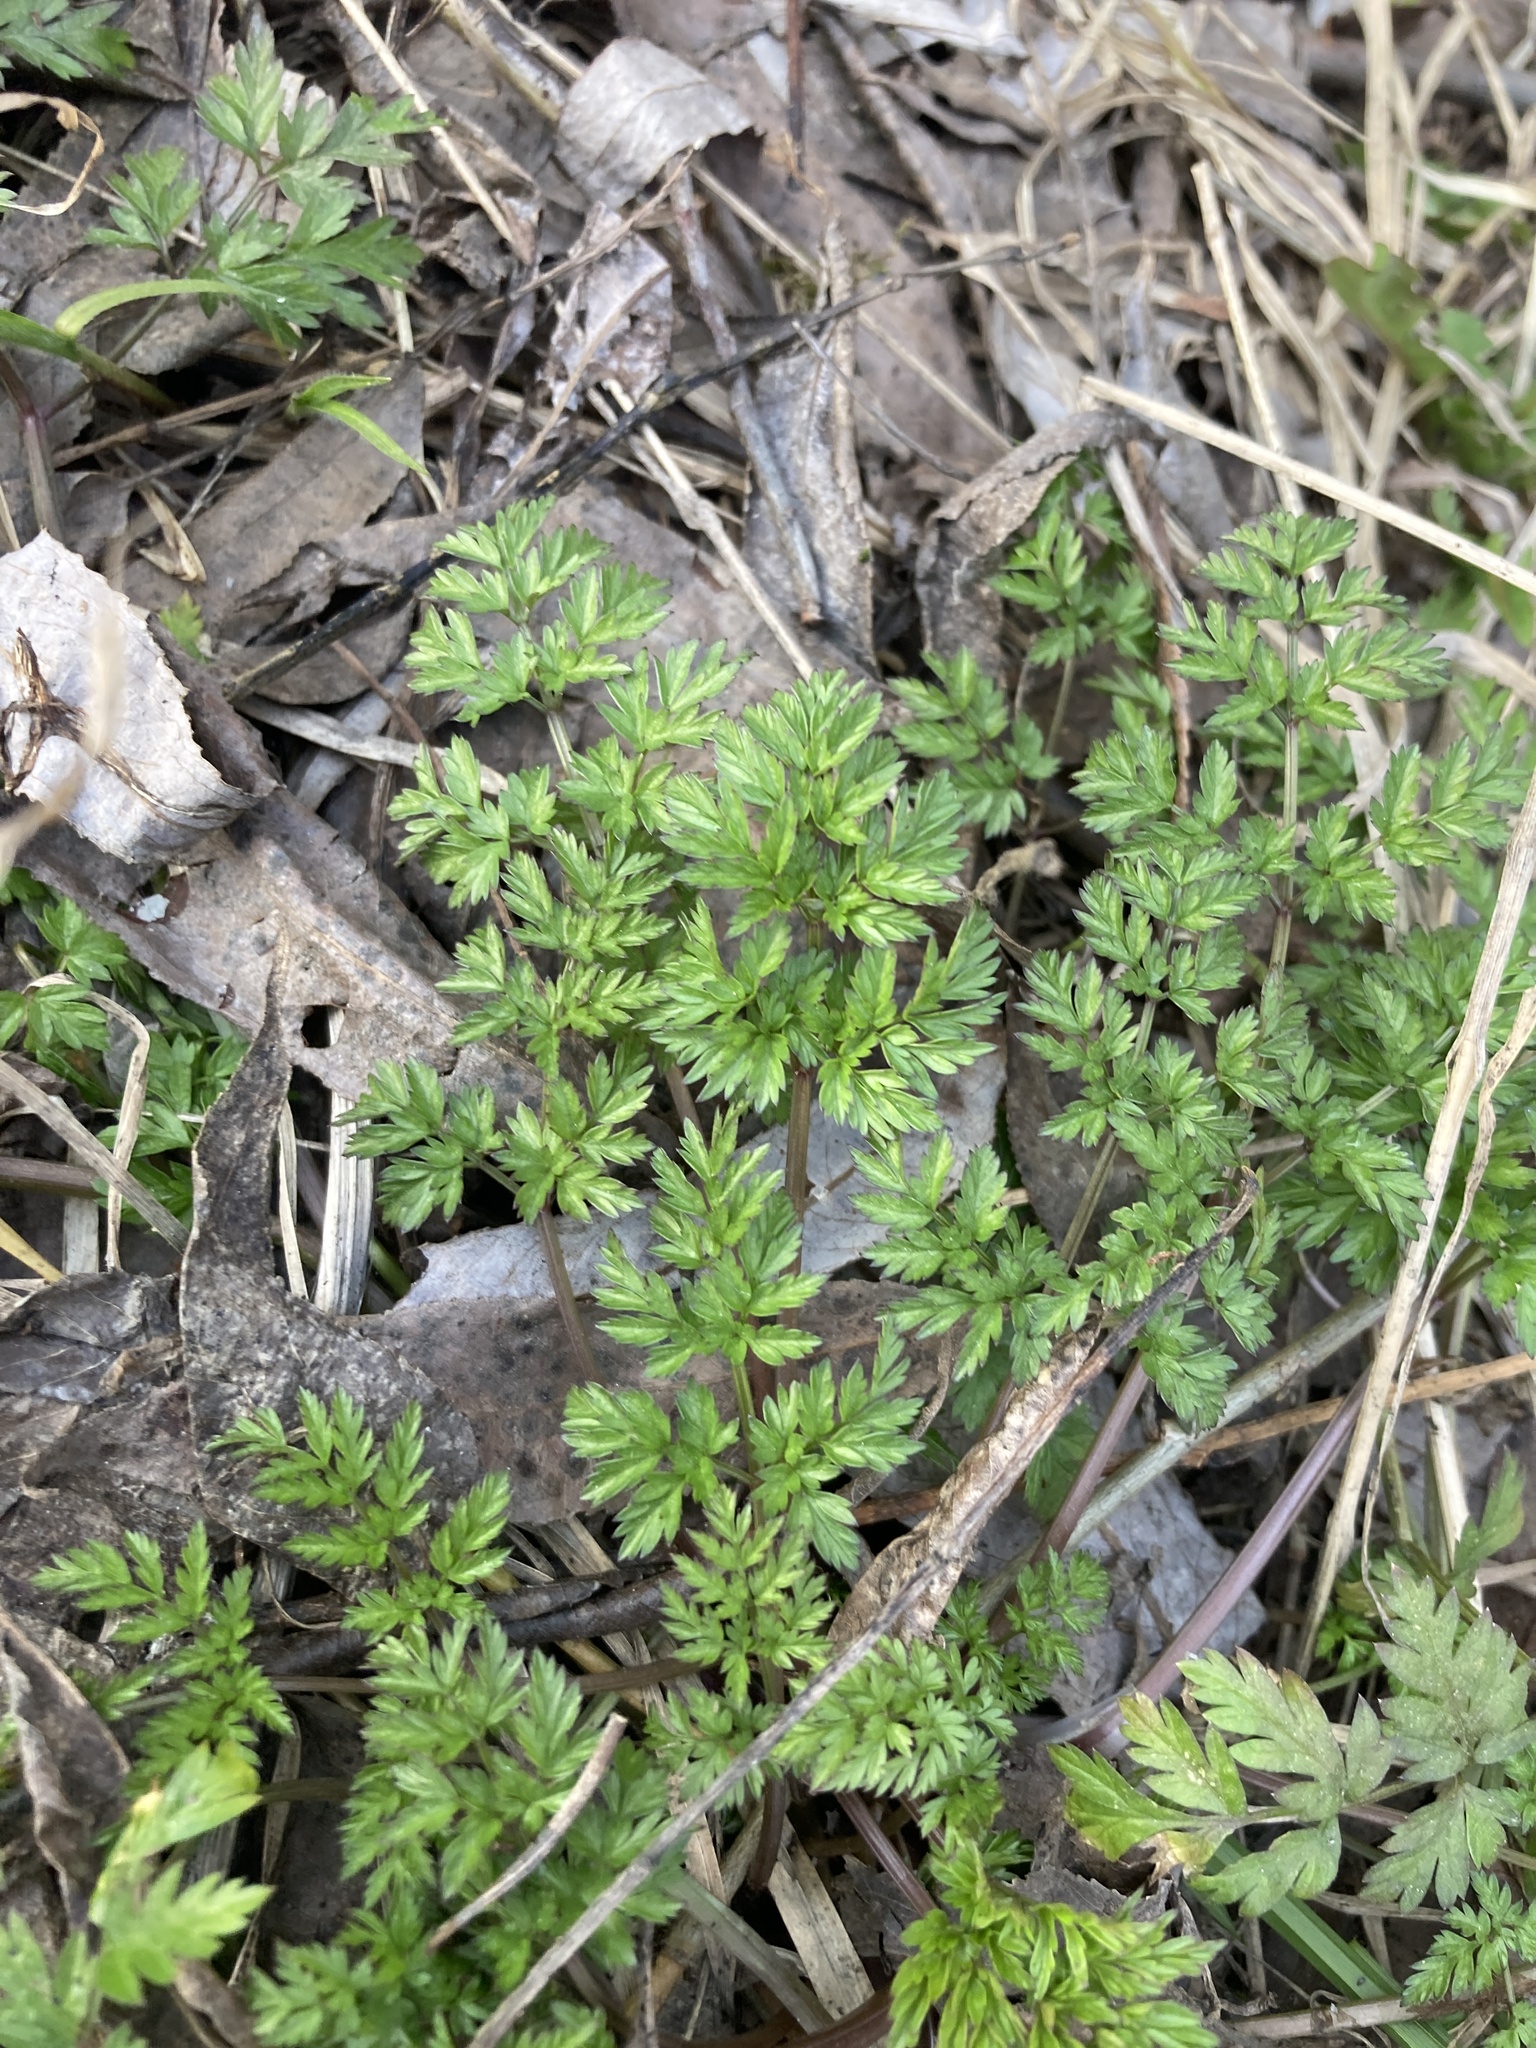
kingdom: Plantae
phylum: Tracheophyta
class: Magnoliopsida
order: Apiales
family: Apiaceae
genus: Anthriscus
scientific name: Anthriscus sylvestris
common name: Cow parsley
